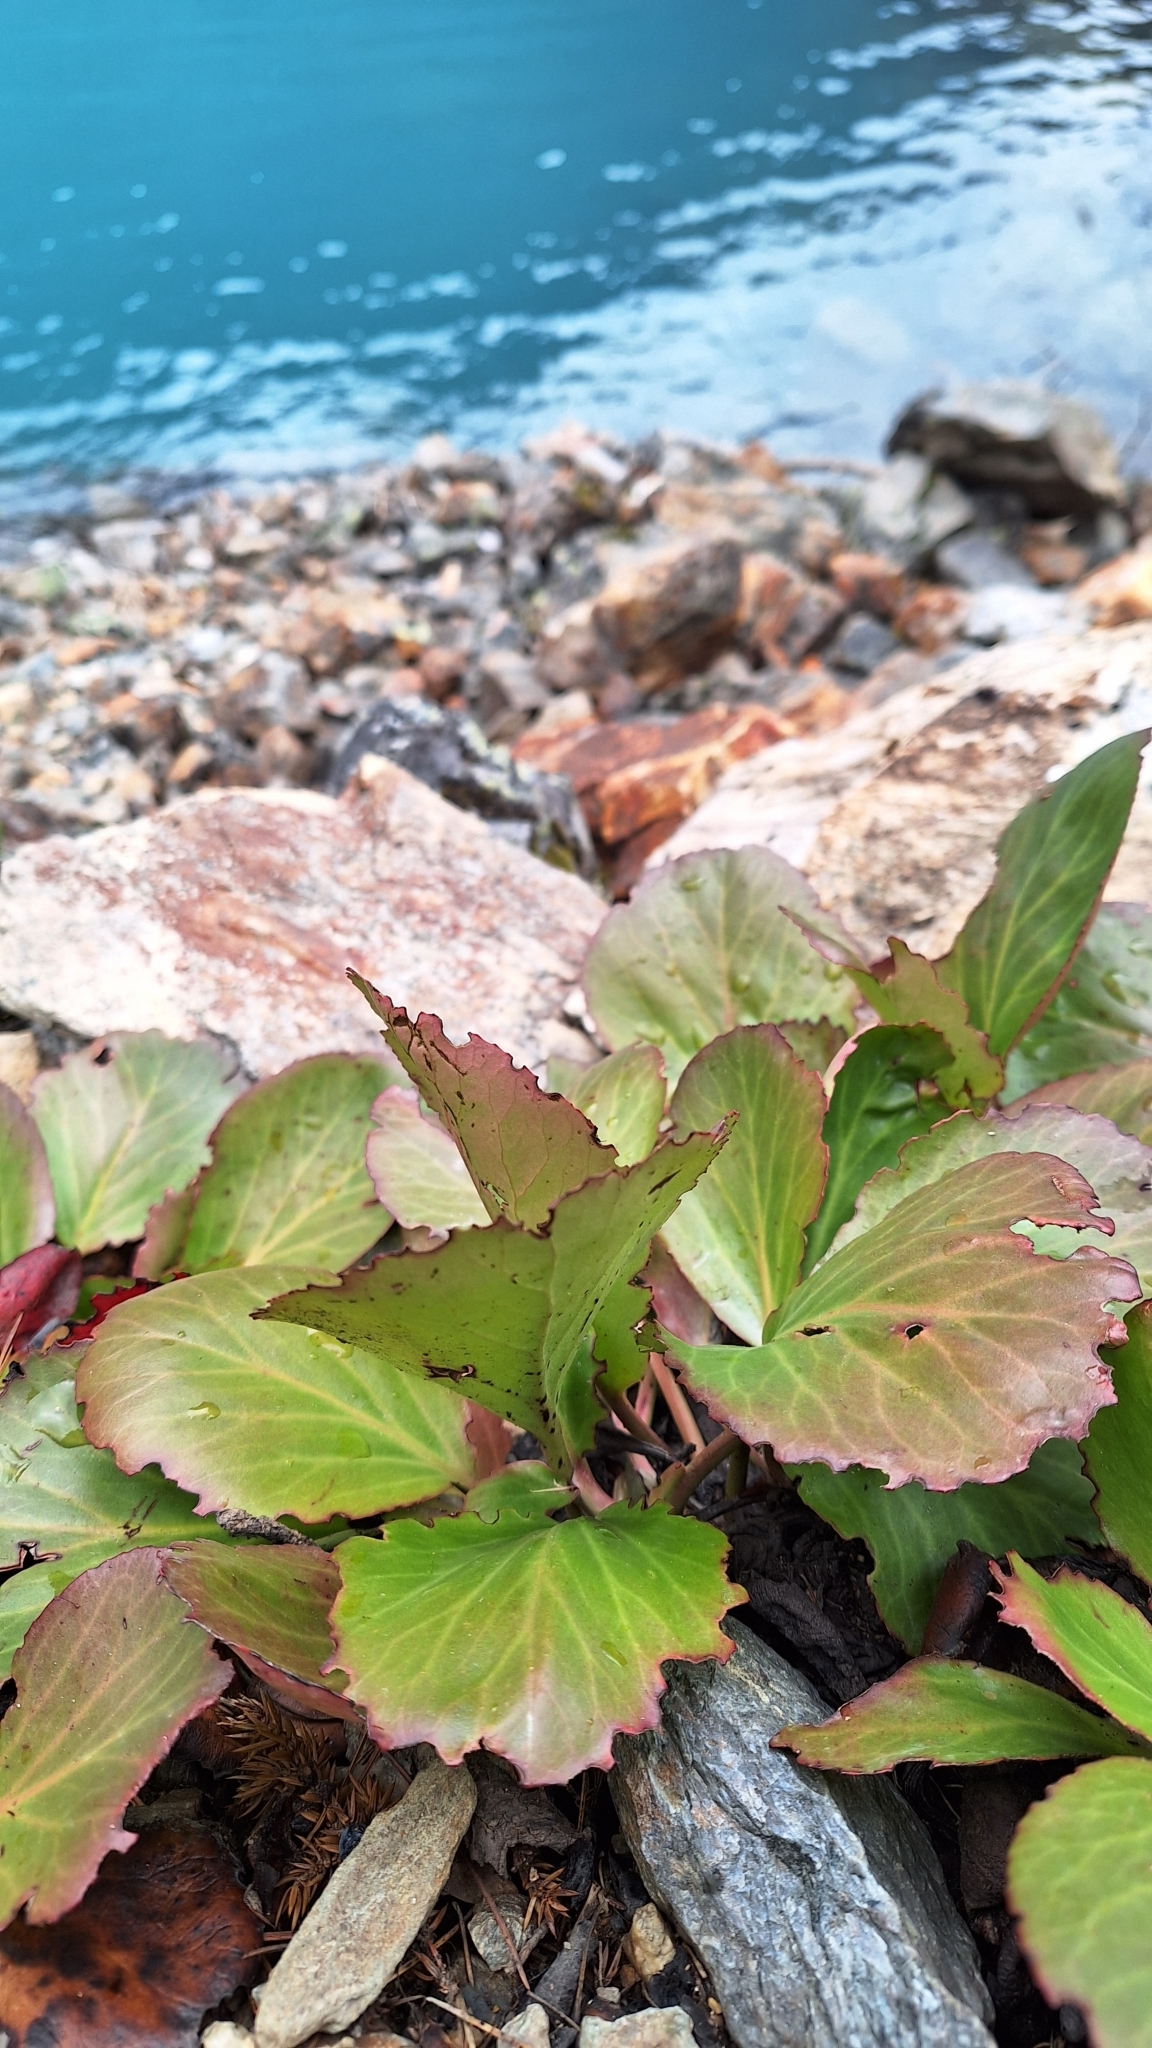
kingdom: Plantae
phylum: Tracheophyta
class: Magnoliopsida
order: Saxifragales
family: Saxifragaceae
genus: Bergenia
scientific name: Bergenia crassifolia
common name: Elephant-ears
